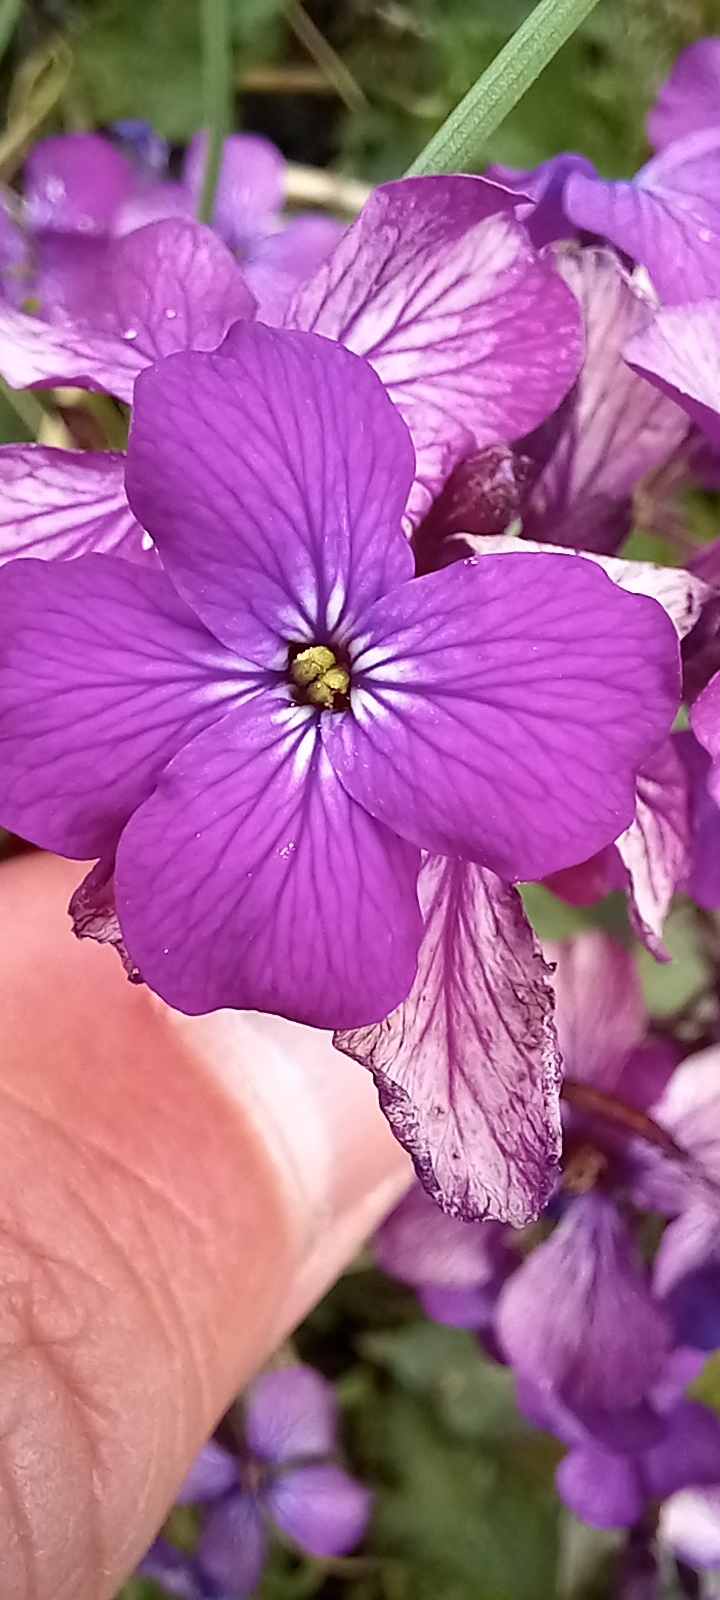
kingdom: Plantae
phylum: Tracheophyta
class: Magnoliopsida
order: Brassicales
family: Brassicaceae
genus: Lunaria
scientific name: Lunaria annua
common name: Honesty
